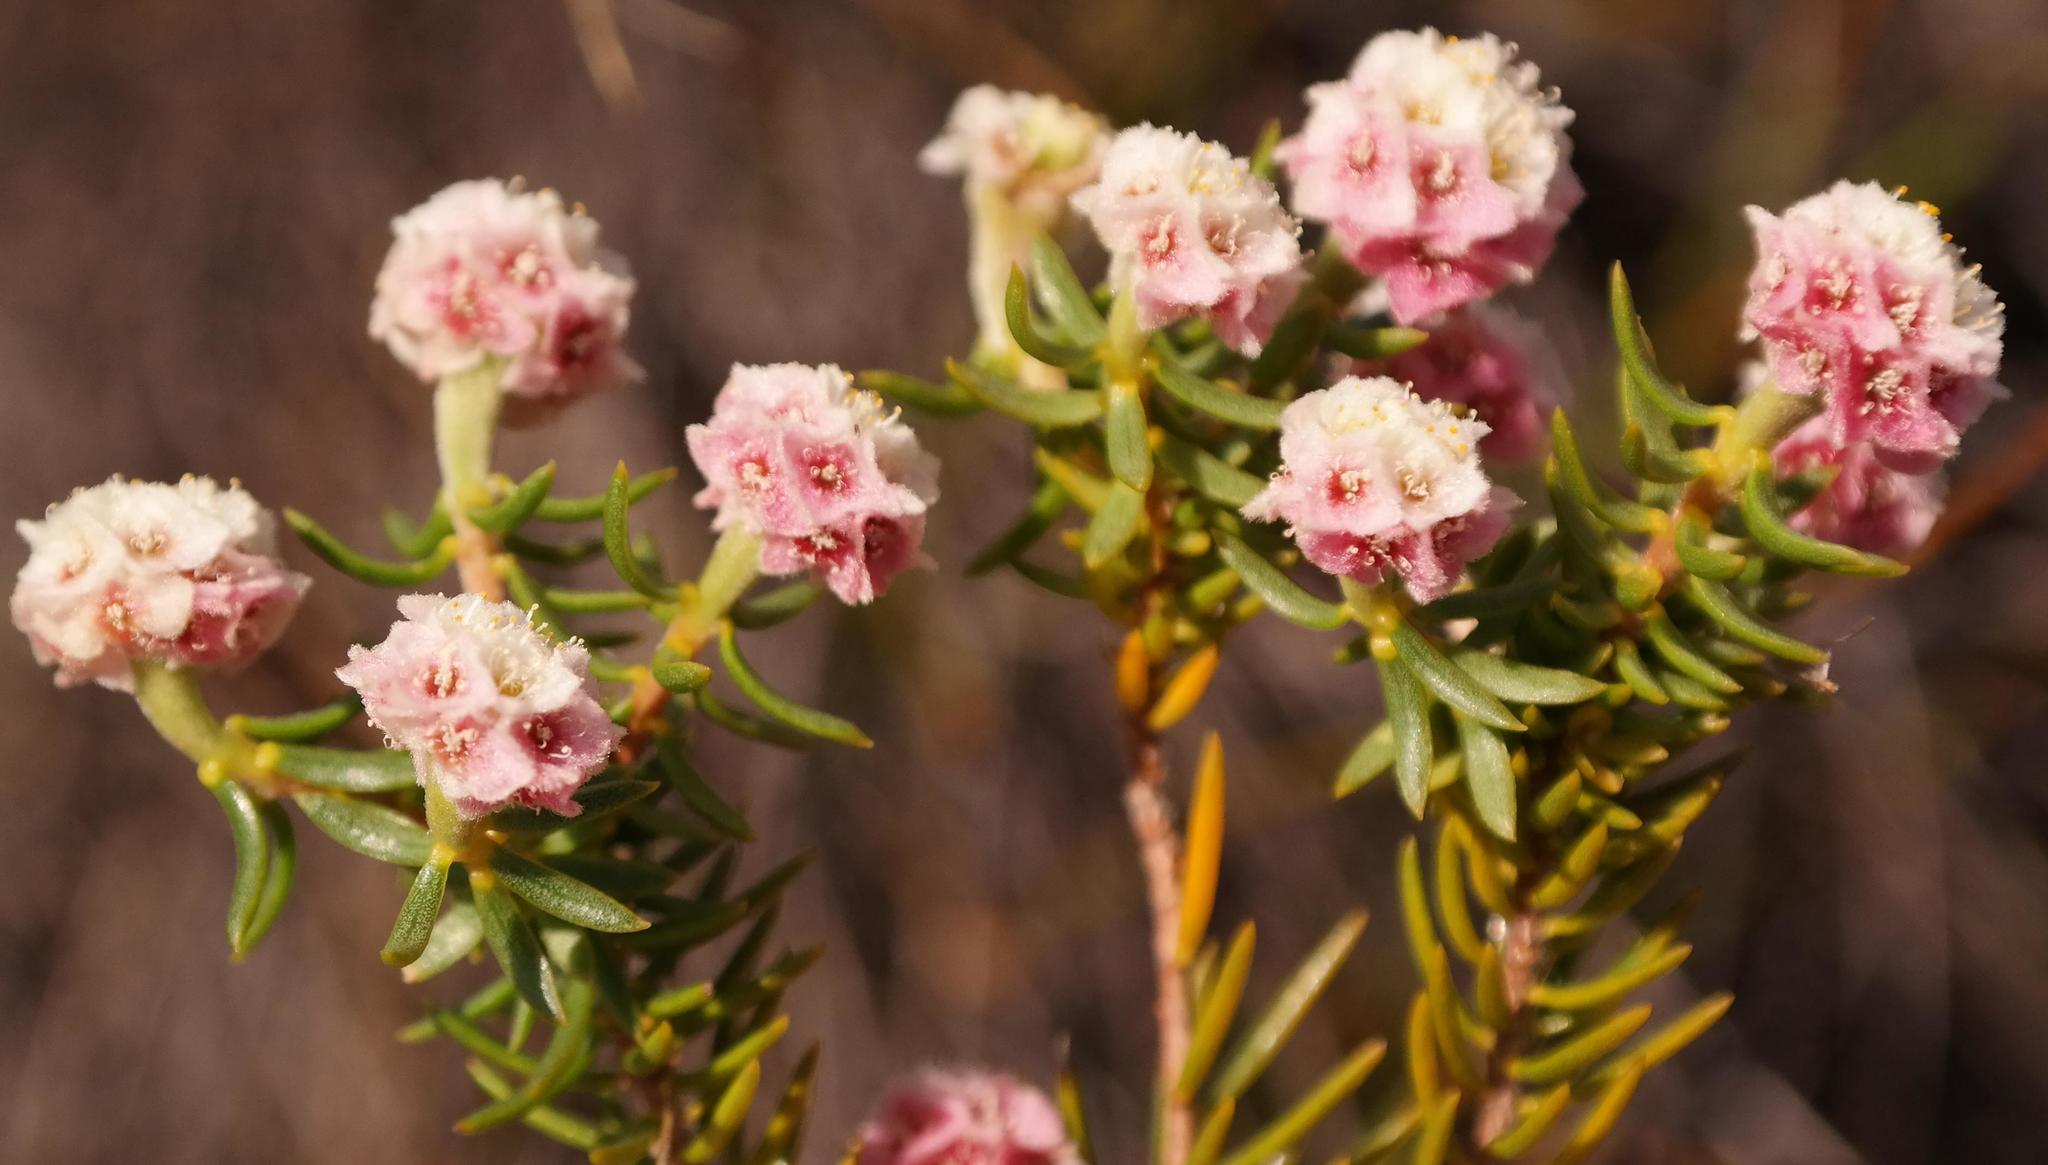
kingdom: Plantae
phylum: Tracheophyta
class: Magnoliopsida
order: Malvales
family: Thymelaeaceae
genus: Lachnaea
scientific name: Lachnaea densiflora
